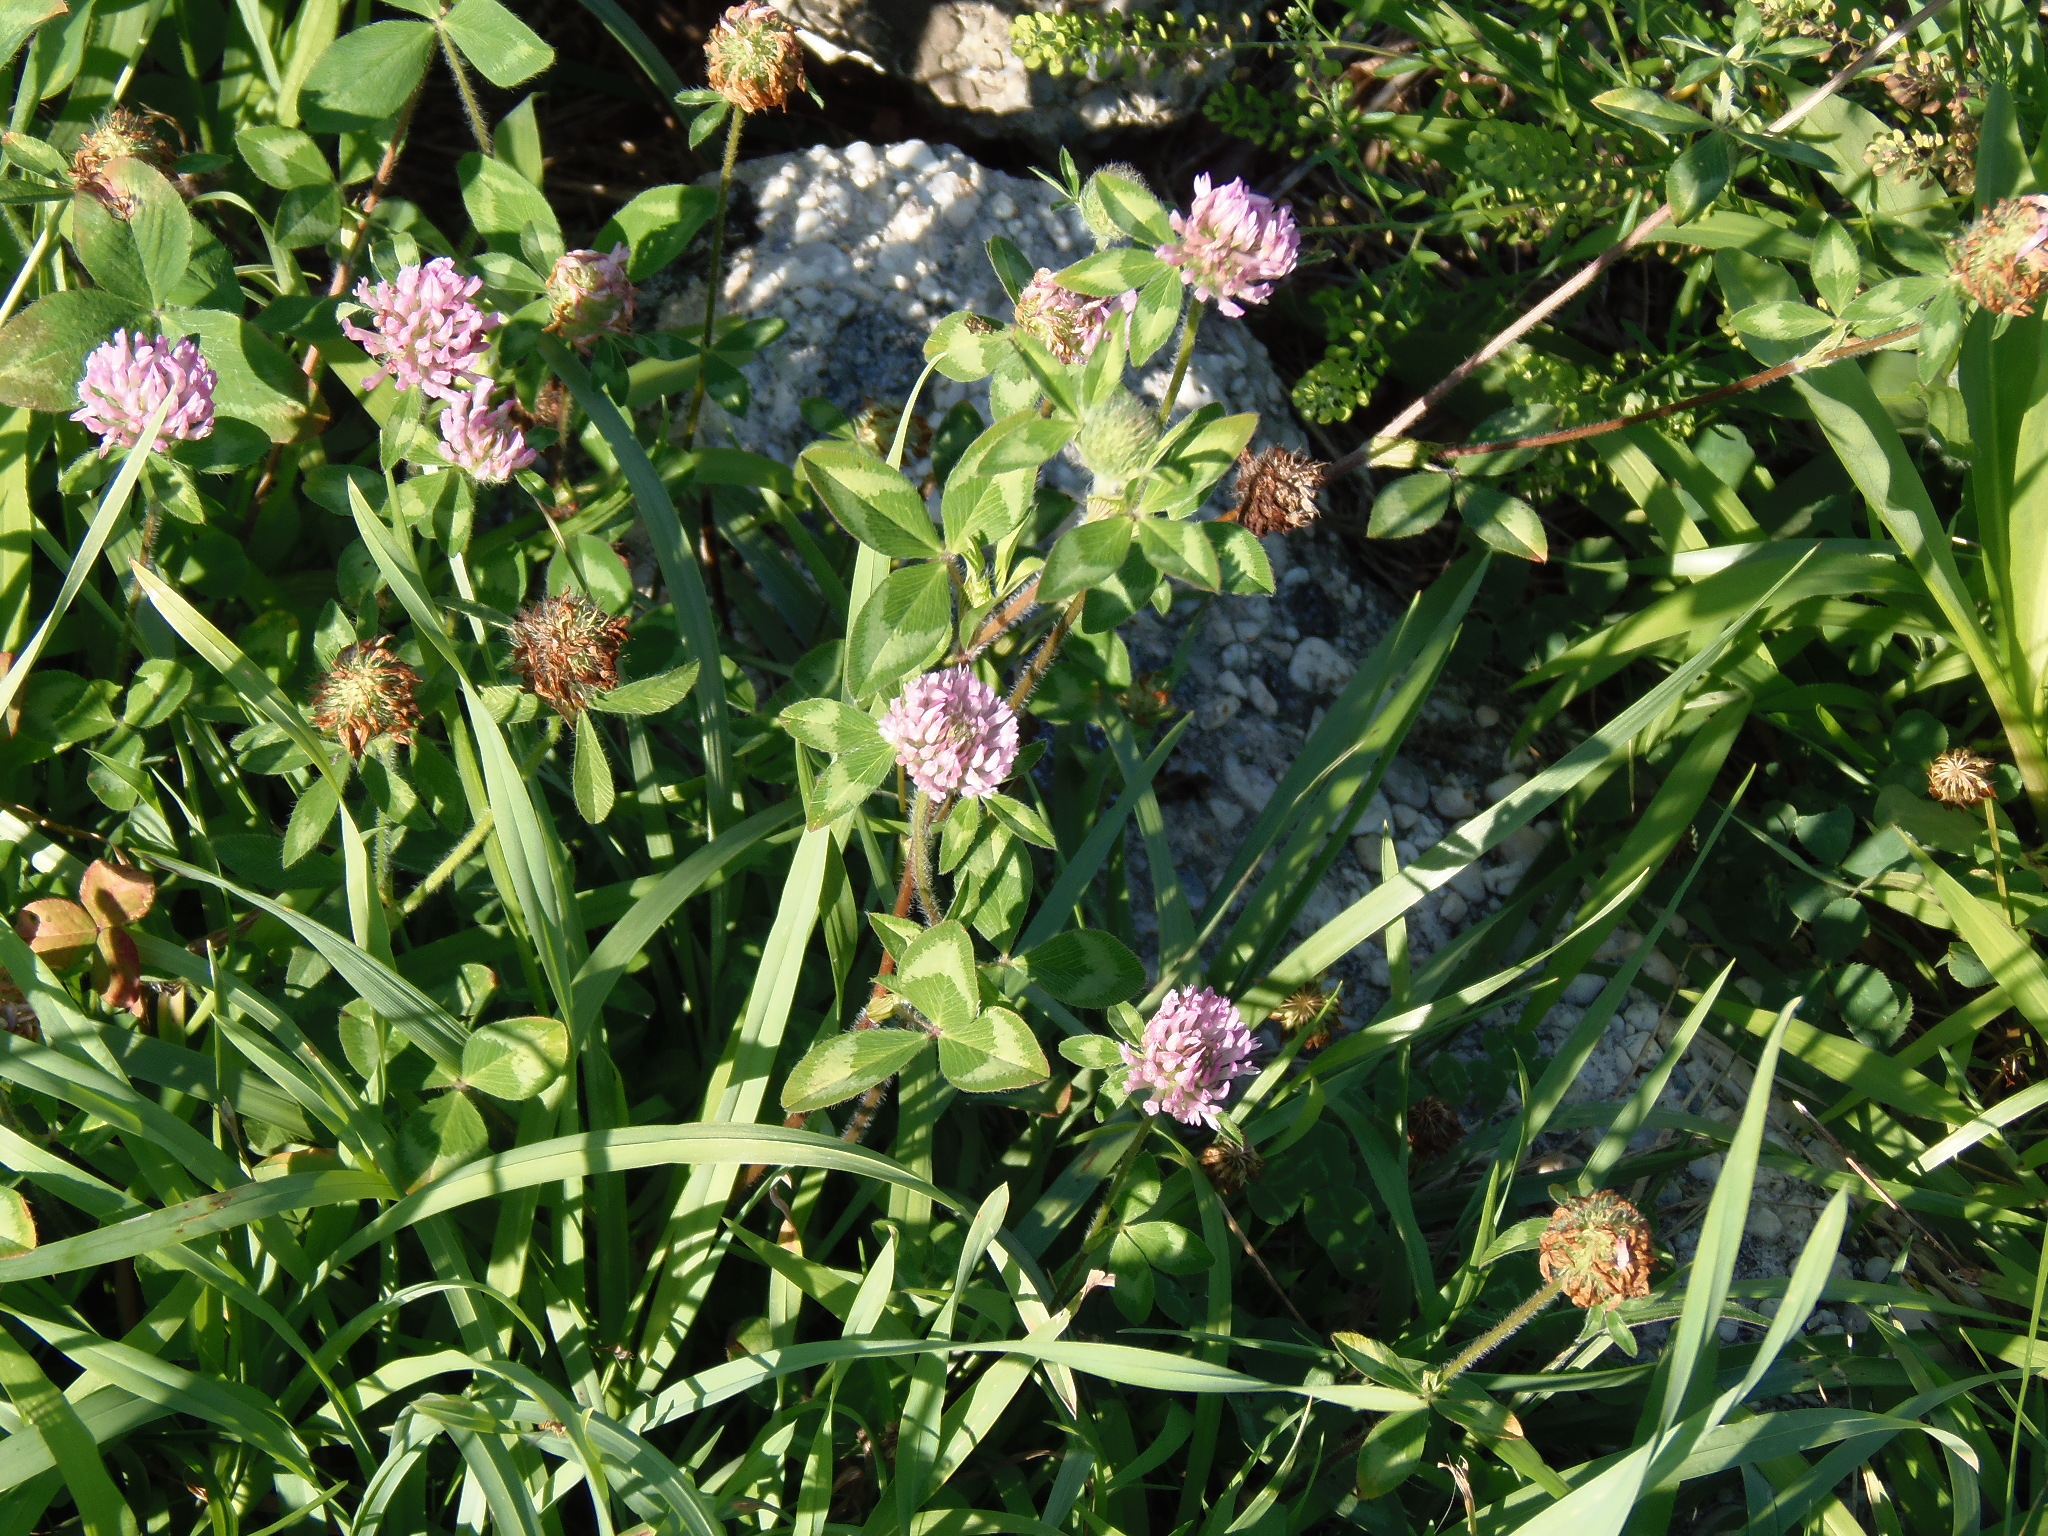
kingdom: Plantae
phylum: Tracheophyta
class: Magnoliopsida
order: Fabales
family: Fabaceae
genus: Trifolium
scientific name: Trifolium pratense
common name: Red clover
